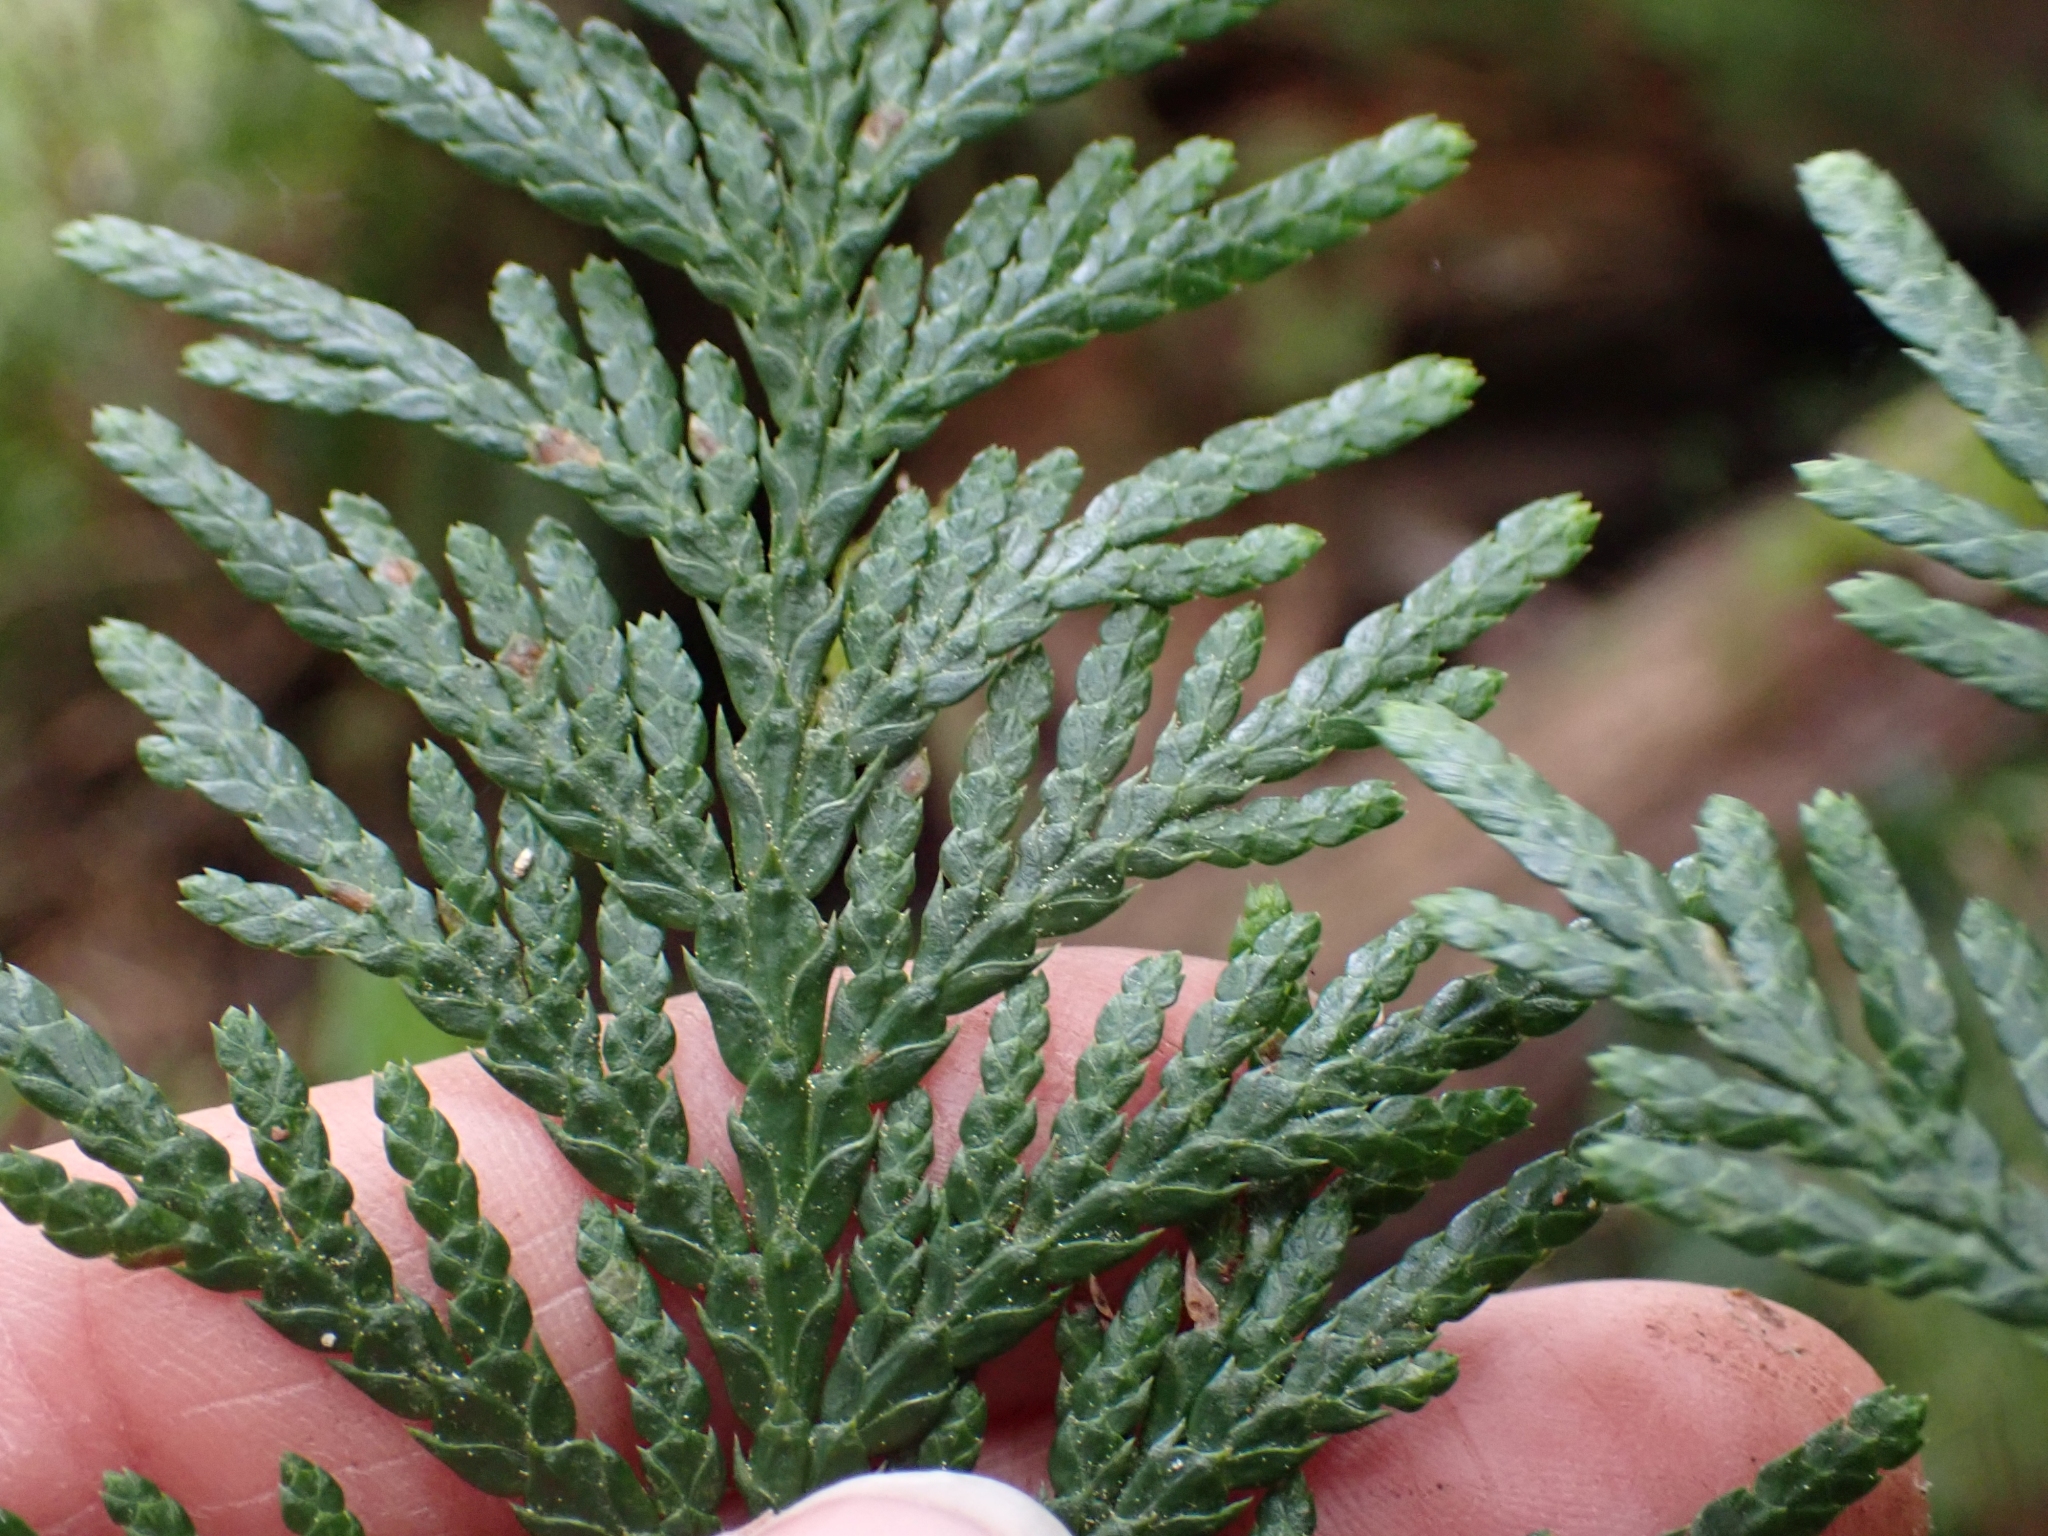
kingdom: Plantae
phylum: Tracheophyta
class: Pinopsida
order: Pinales
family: Cupressaceae
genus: Thuja
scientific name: Thuja plicata
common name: Western red-cedar
